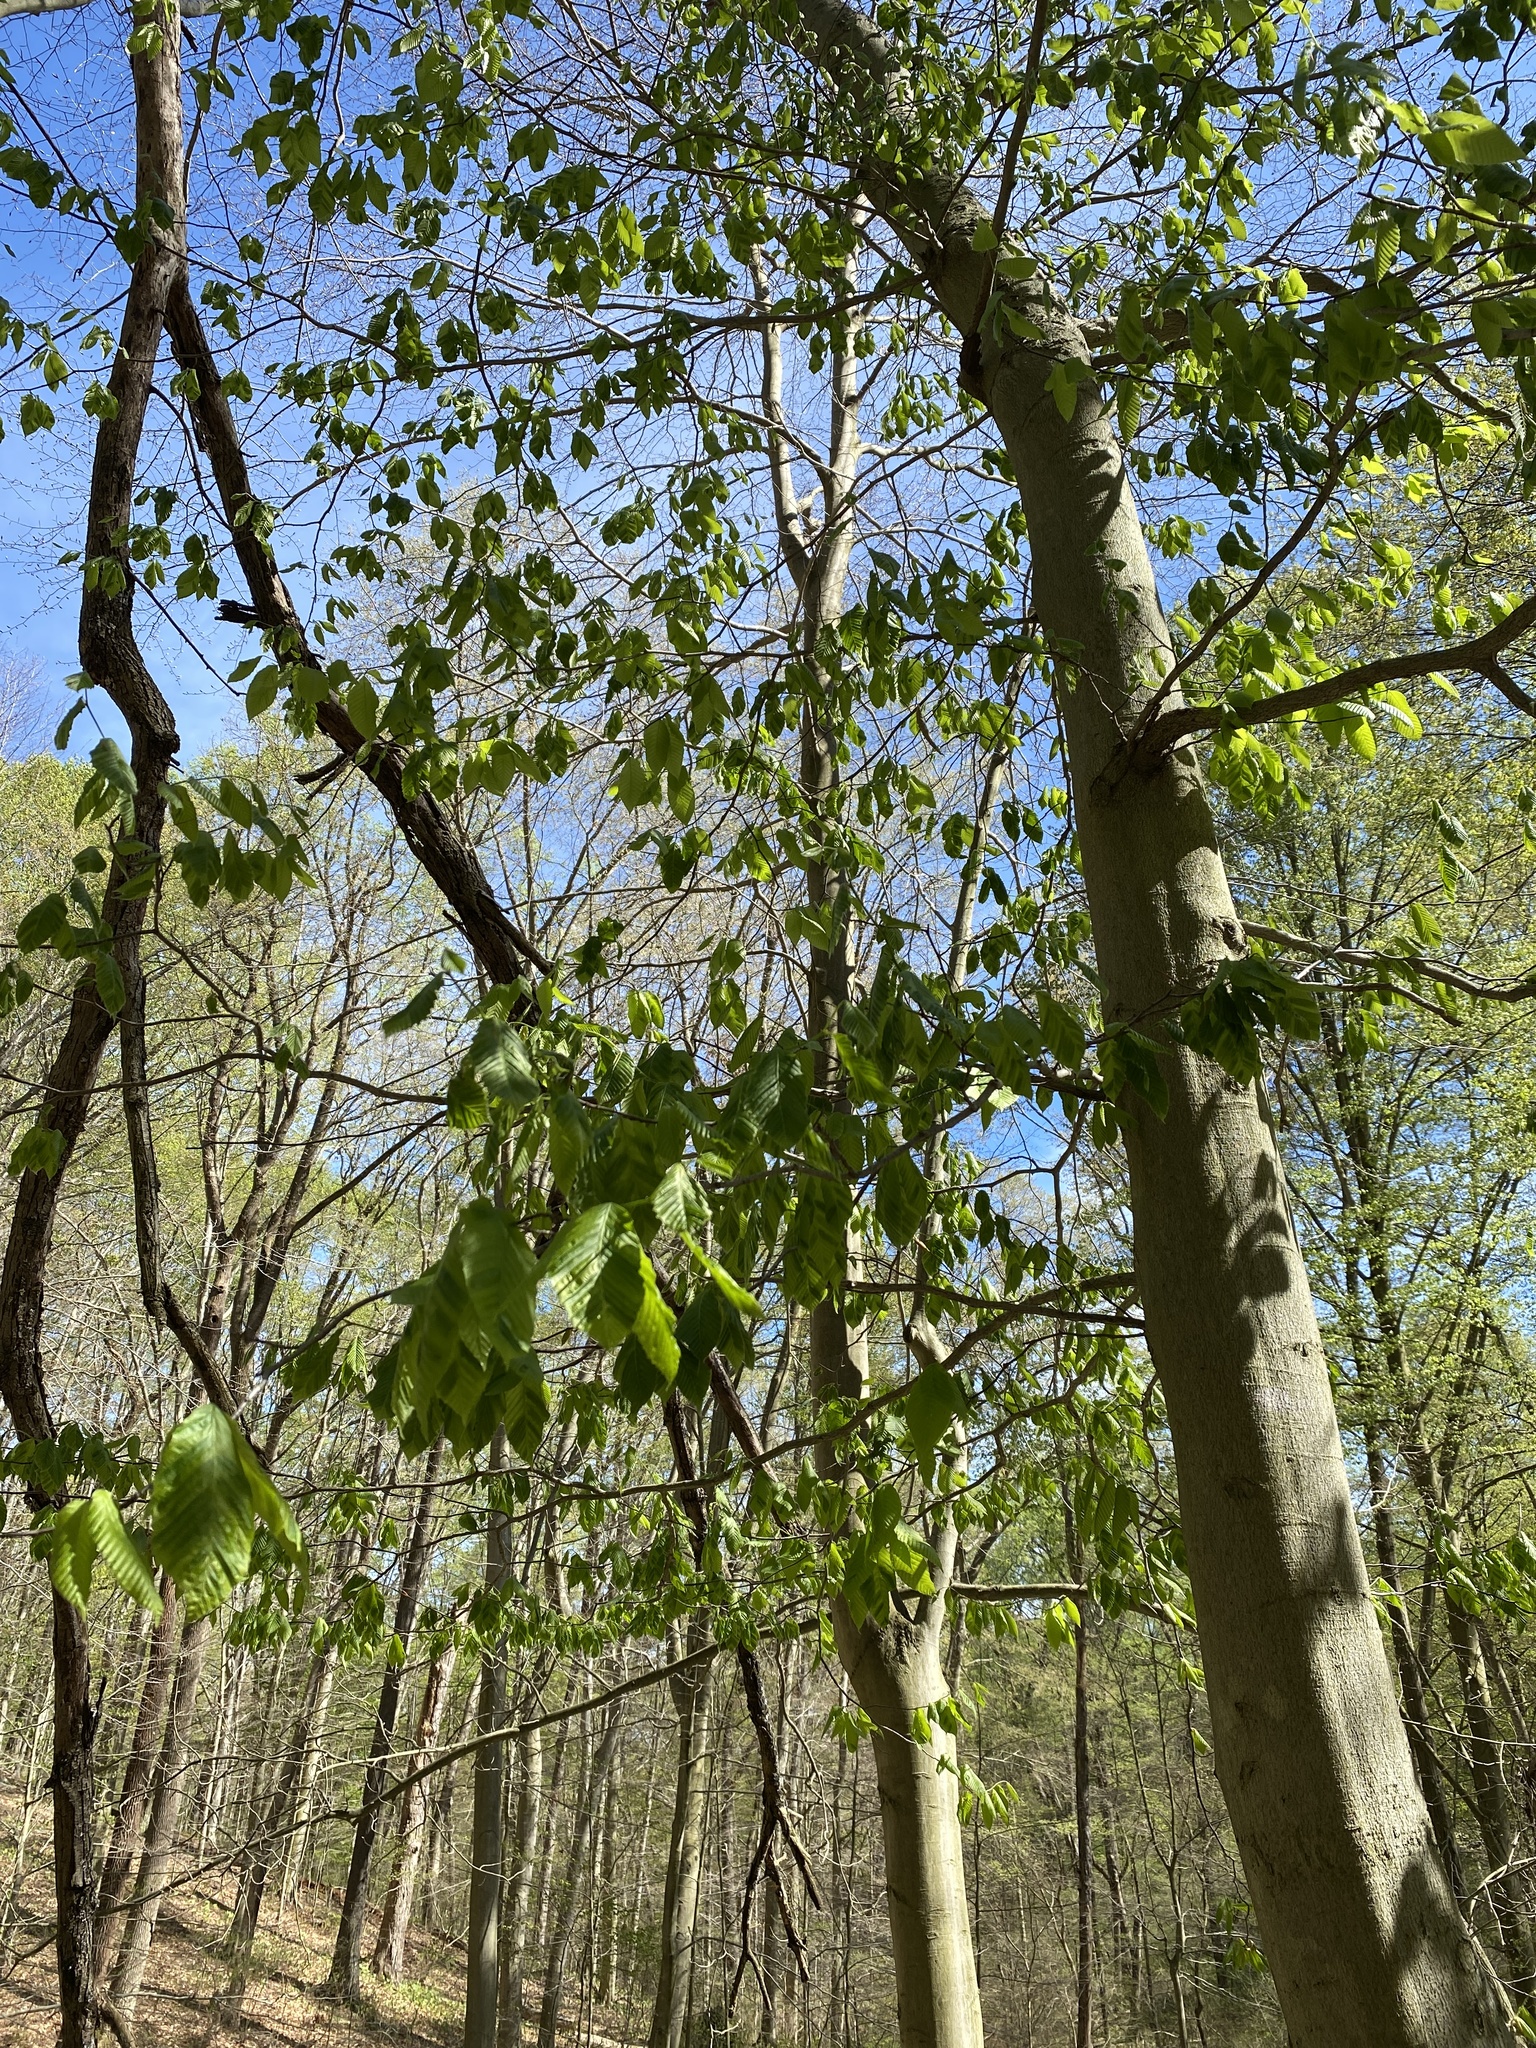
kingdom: Plantae
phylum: Tracheophyta
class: Magnoliopsida
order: Fagales
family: Fagaceae
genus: Fagus
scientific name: Fagus grandifolia
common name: American beech
